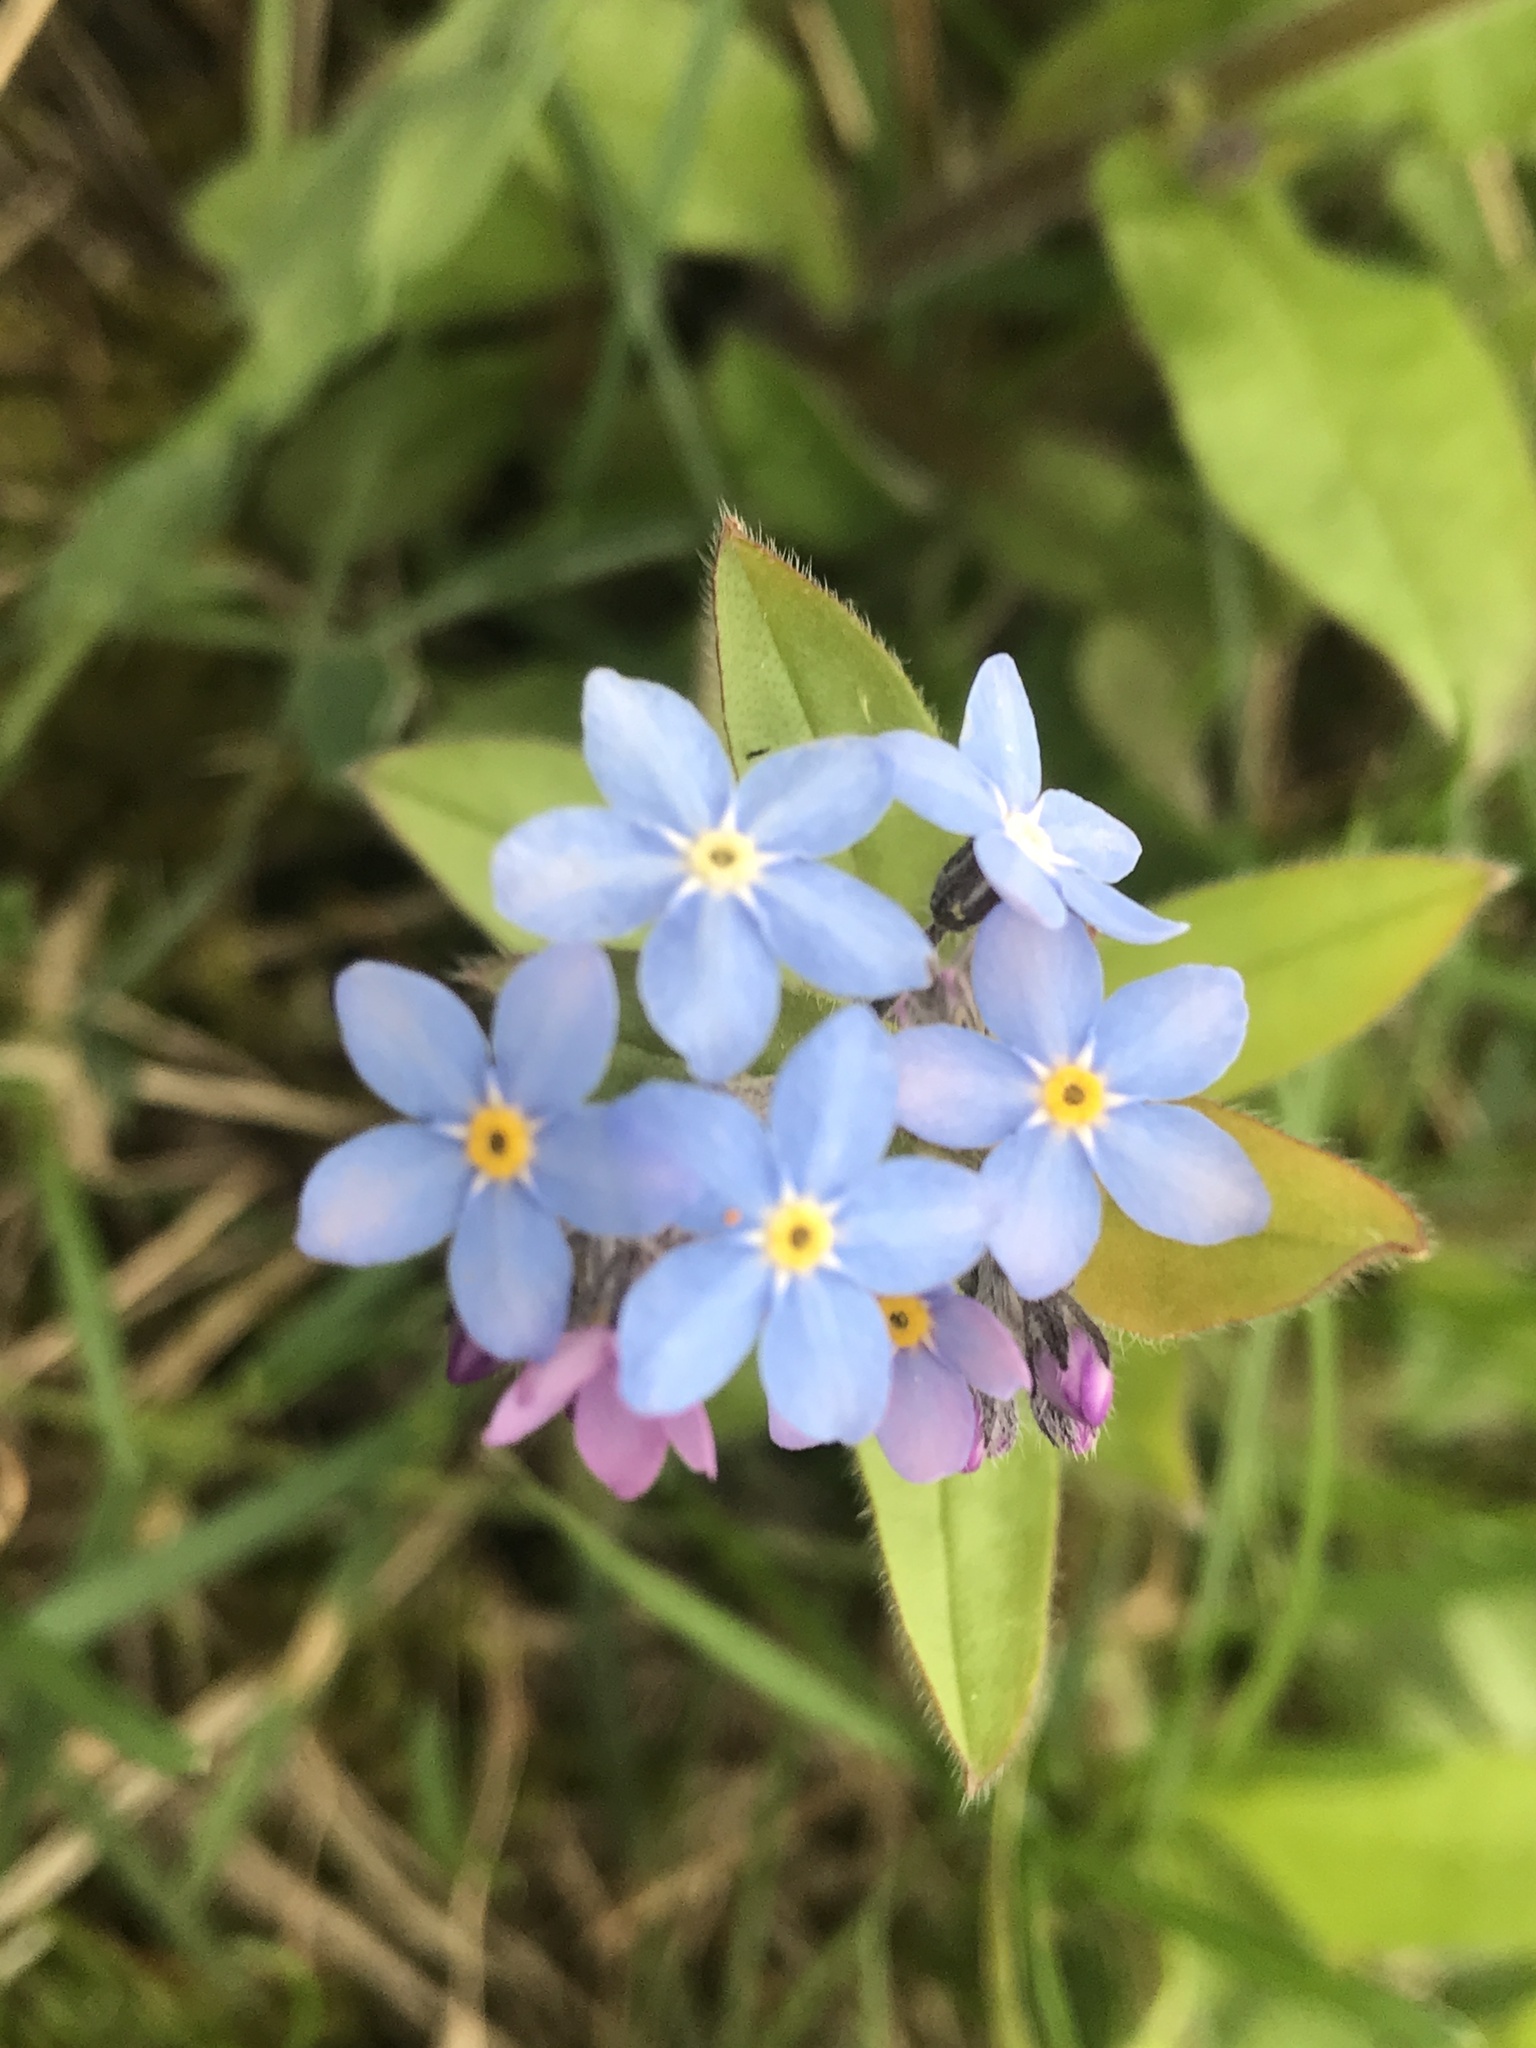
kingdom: Plantae
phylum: Tracheophyta
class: Magnoliopsida
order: Boraginales
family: Boraginaceae
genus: Myosotis
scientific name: Myosotis sylvatica
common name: Wood forget-me-not
